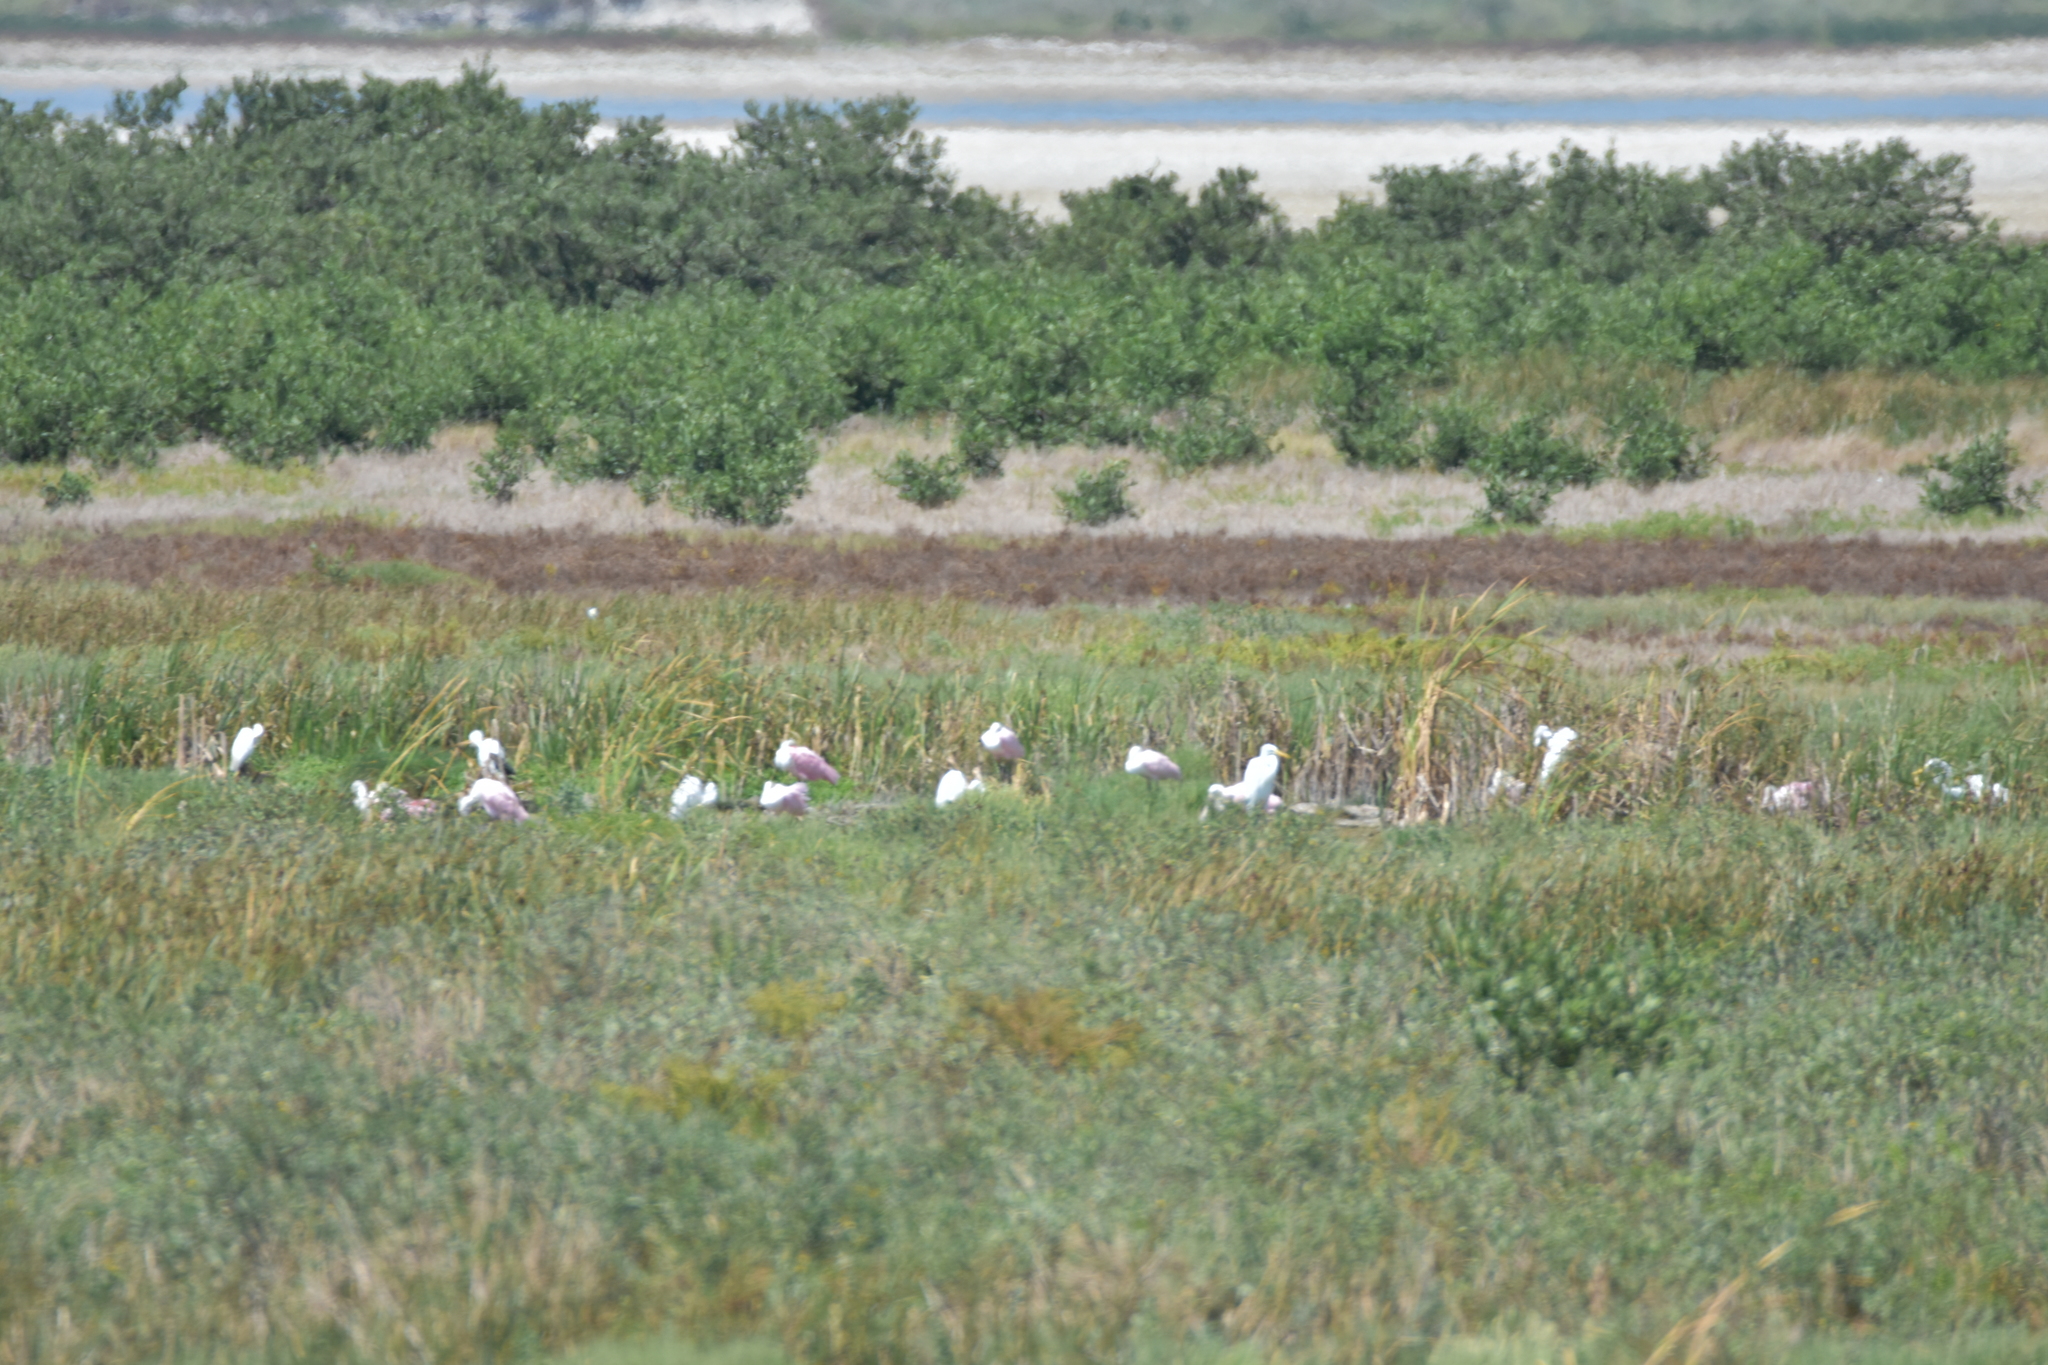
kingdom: Animalia
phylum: Chordata
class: Aves
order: Pelecaniformes
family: Threskiornithidae
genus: Platalea
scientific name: Platalea ajaja
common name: Roseate spoonbill
